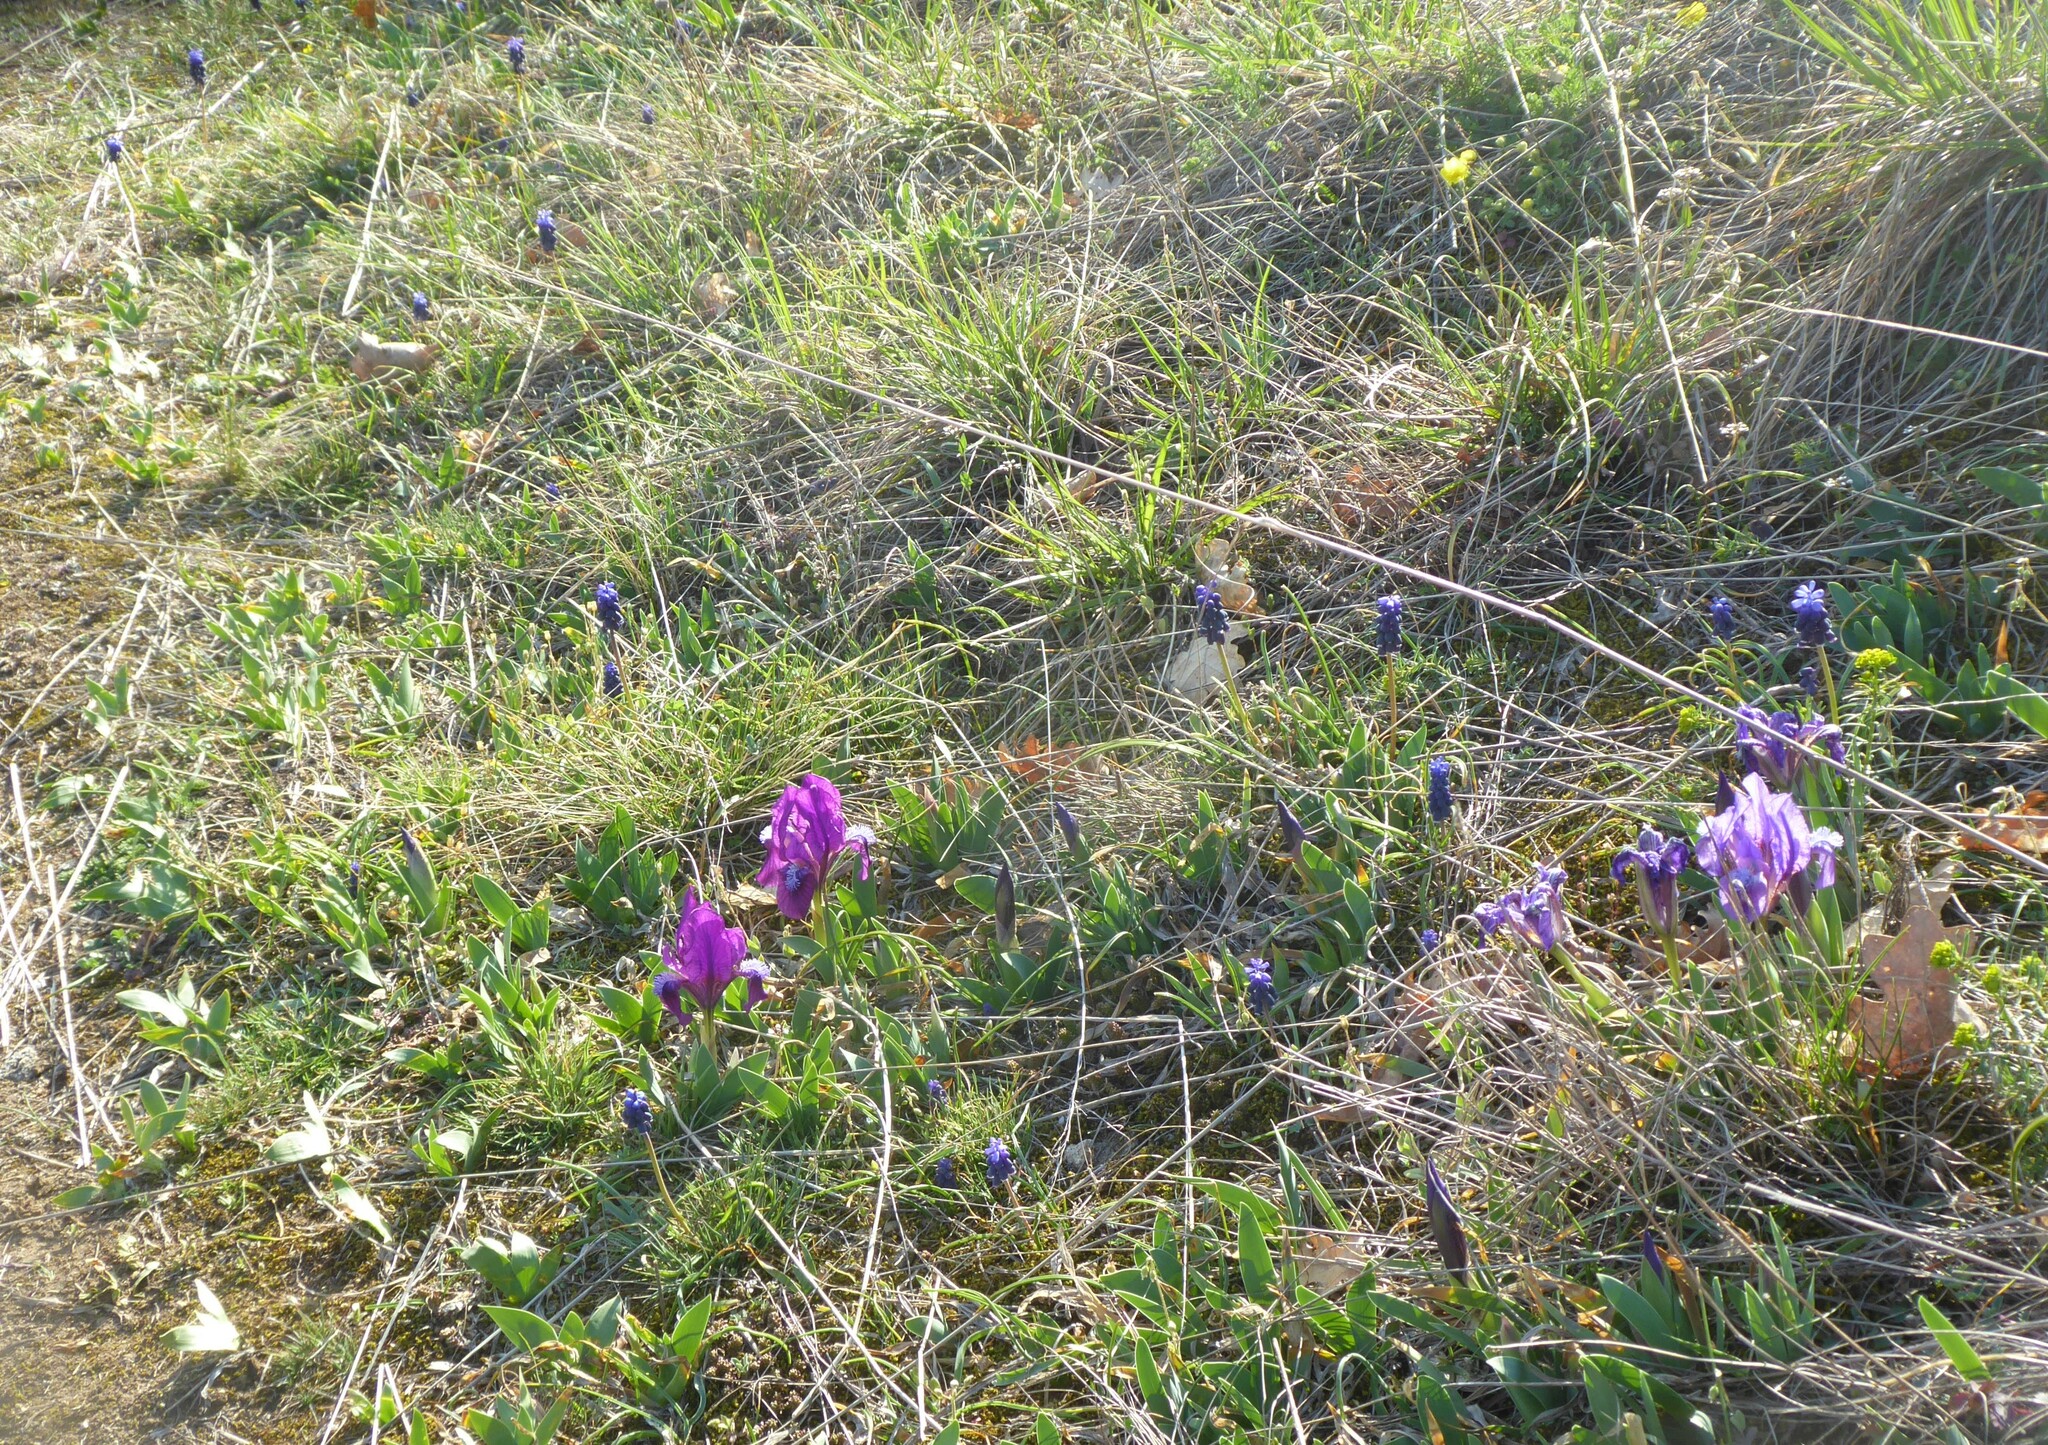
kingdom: Plantae
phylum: Tracheophyta
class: Liliopsida
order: Asparagales
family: Iridaceae
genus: Iris
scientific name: Iris pumila
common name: Dwarf iris
